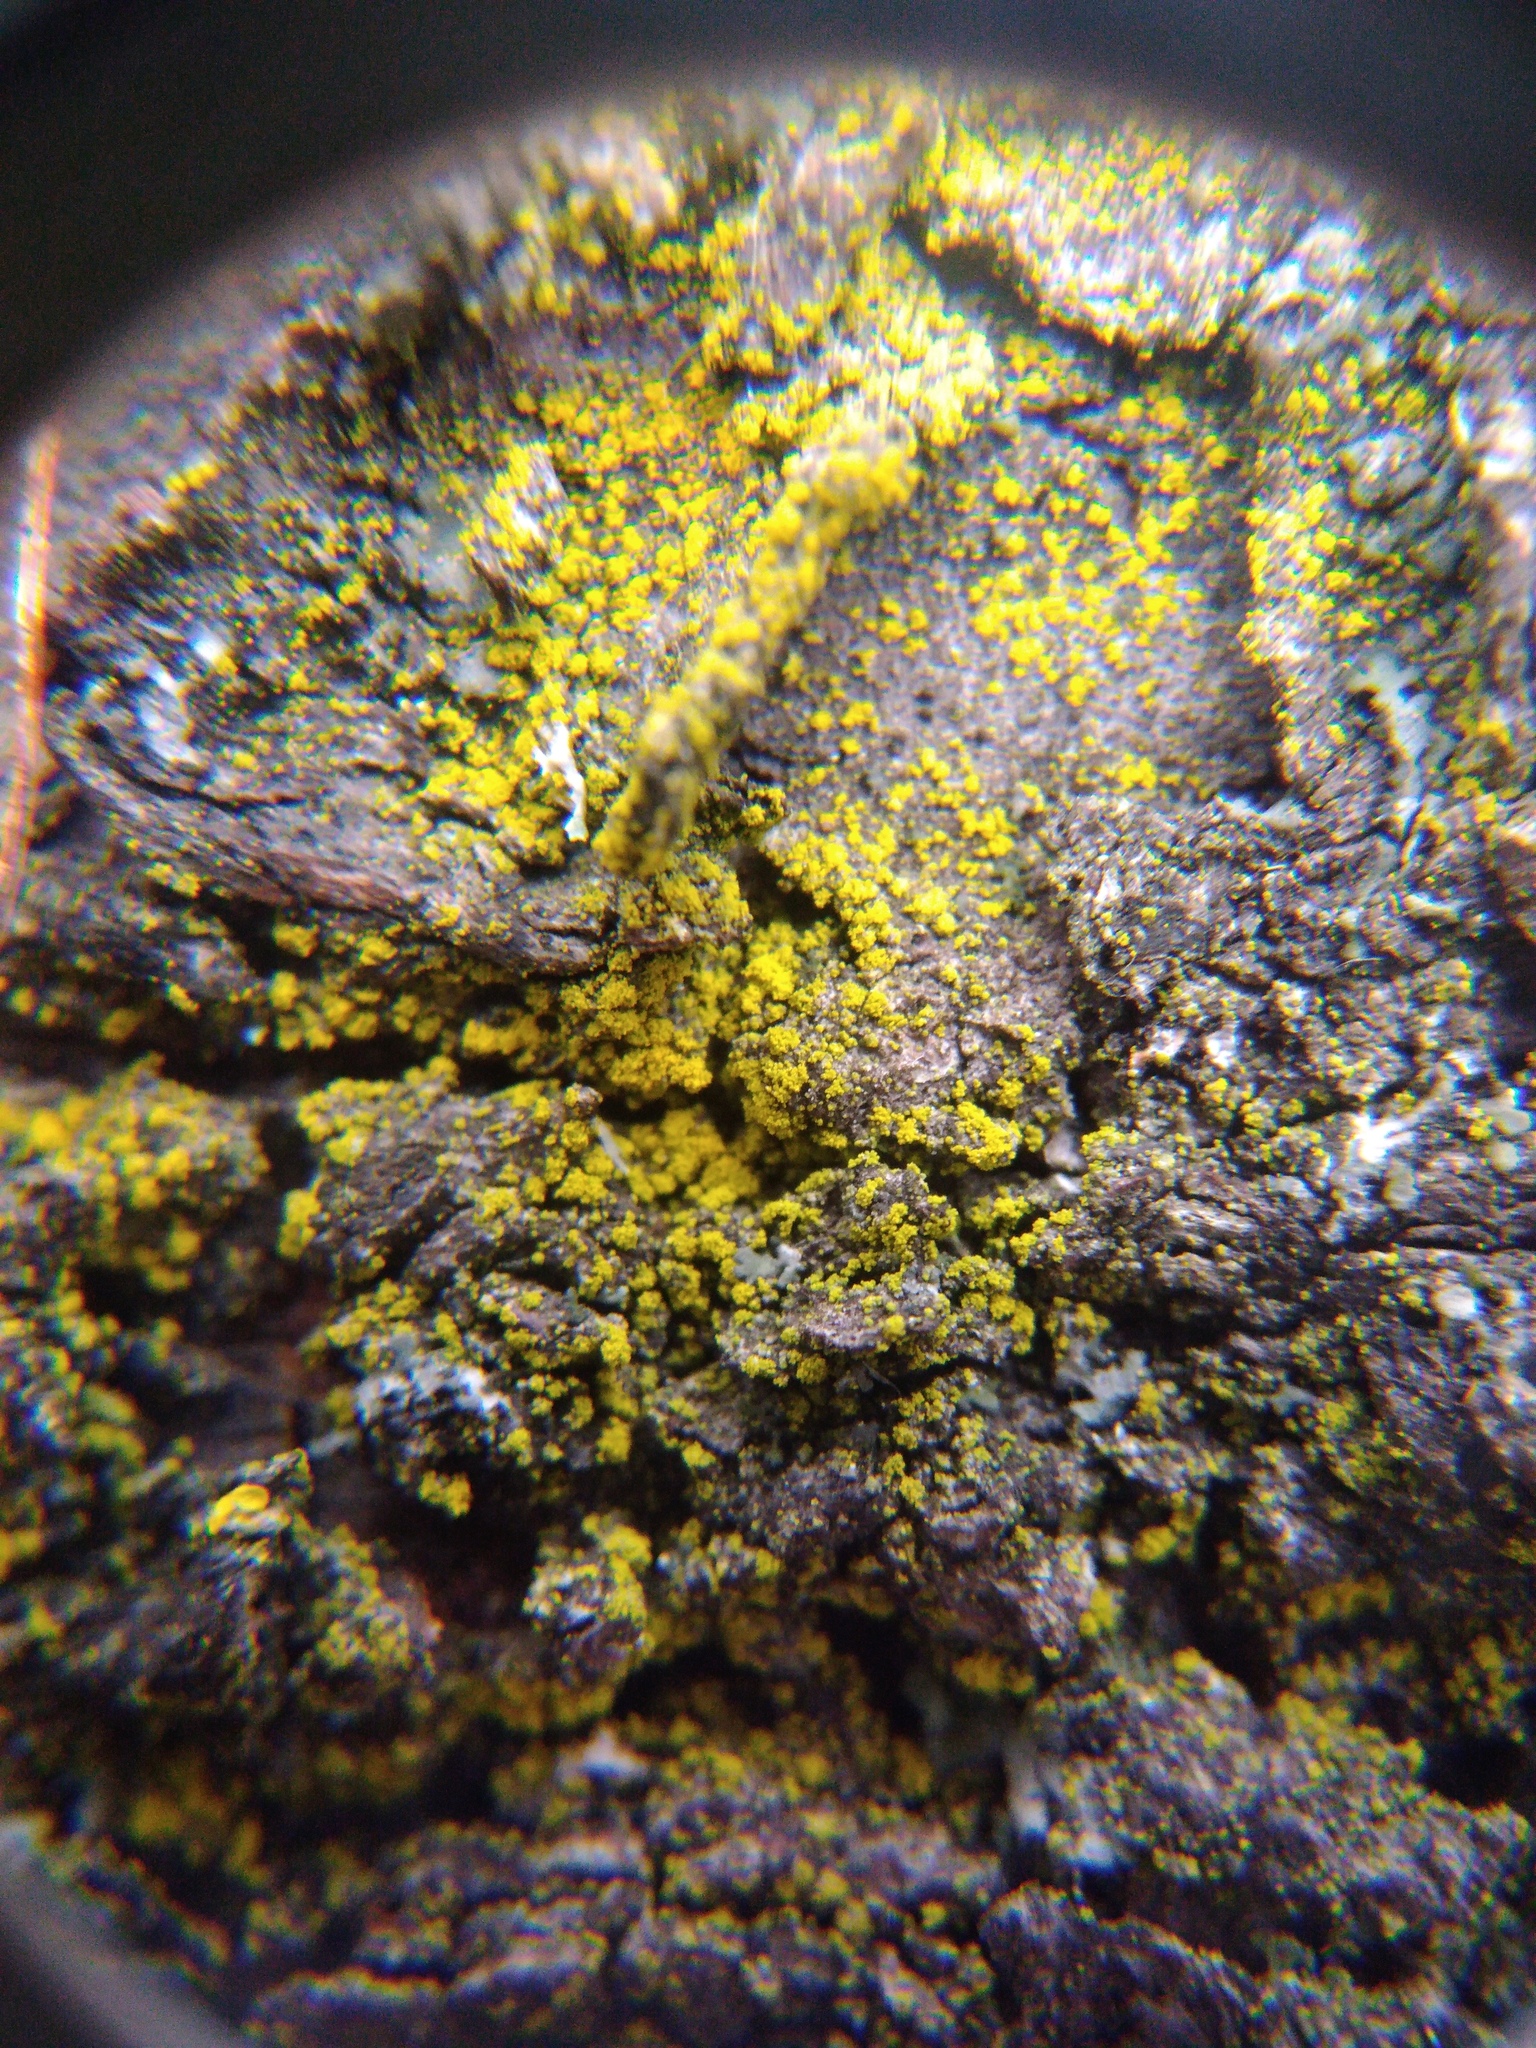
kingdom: Fungi
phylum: Ascomycota
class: Candelariomycetes
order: Candelariales
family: Candelariaceae
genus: Candelariella
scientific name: Candelariella efflorescens
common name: Powdery goldspeck
